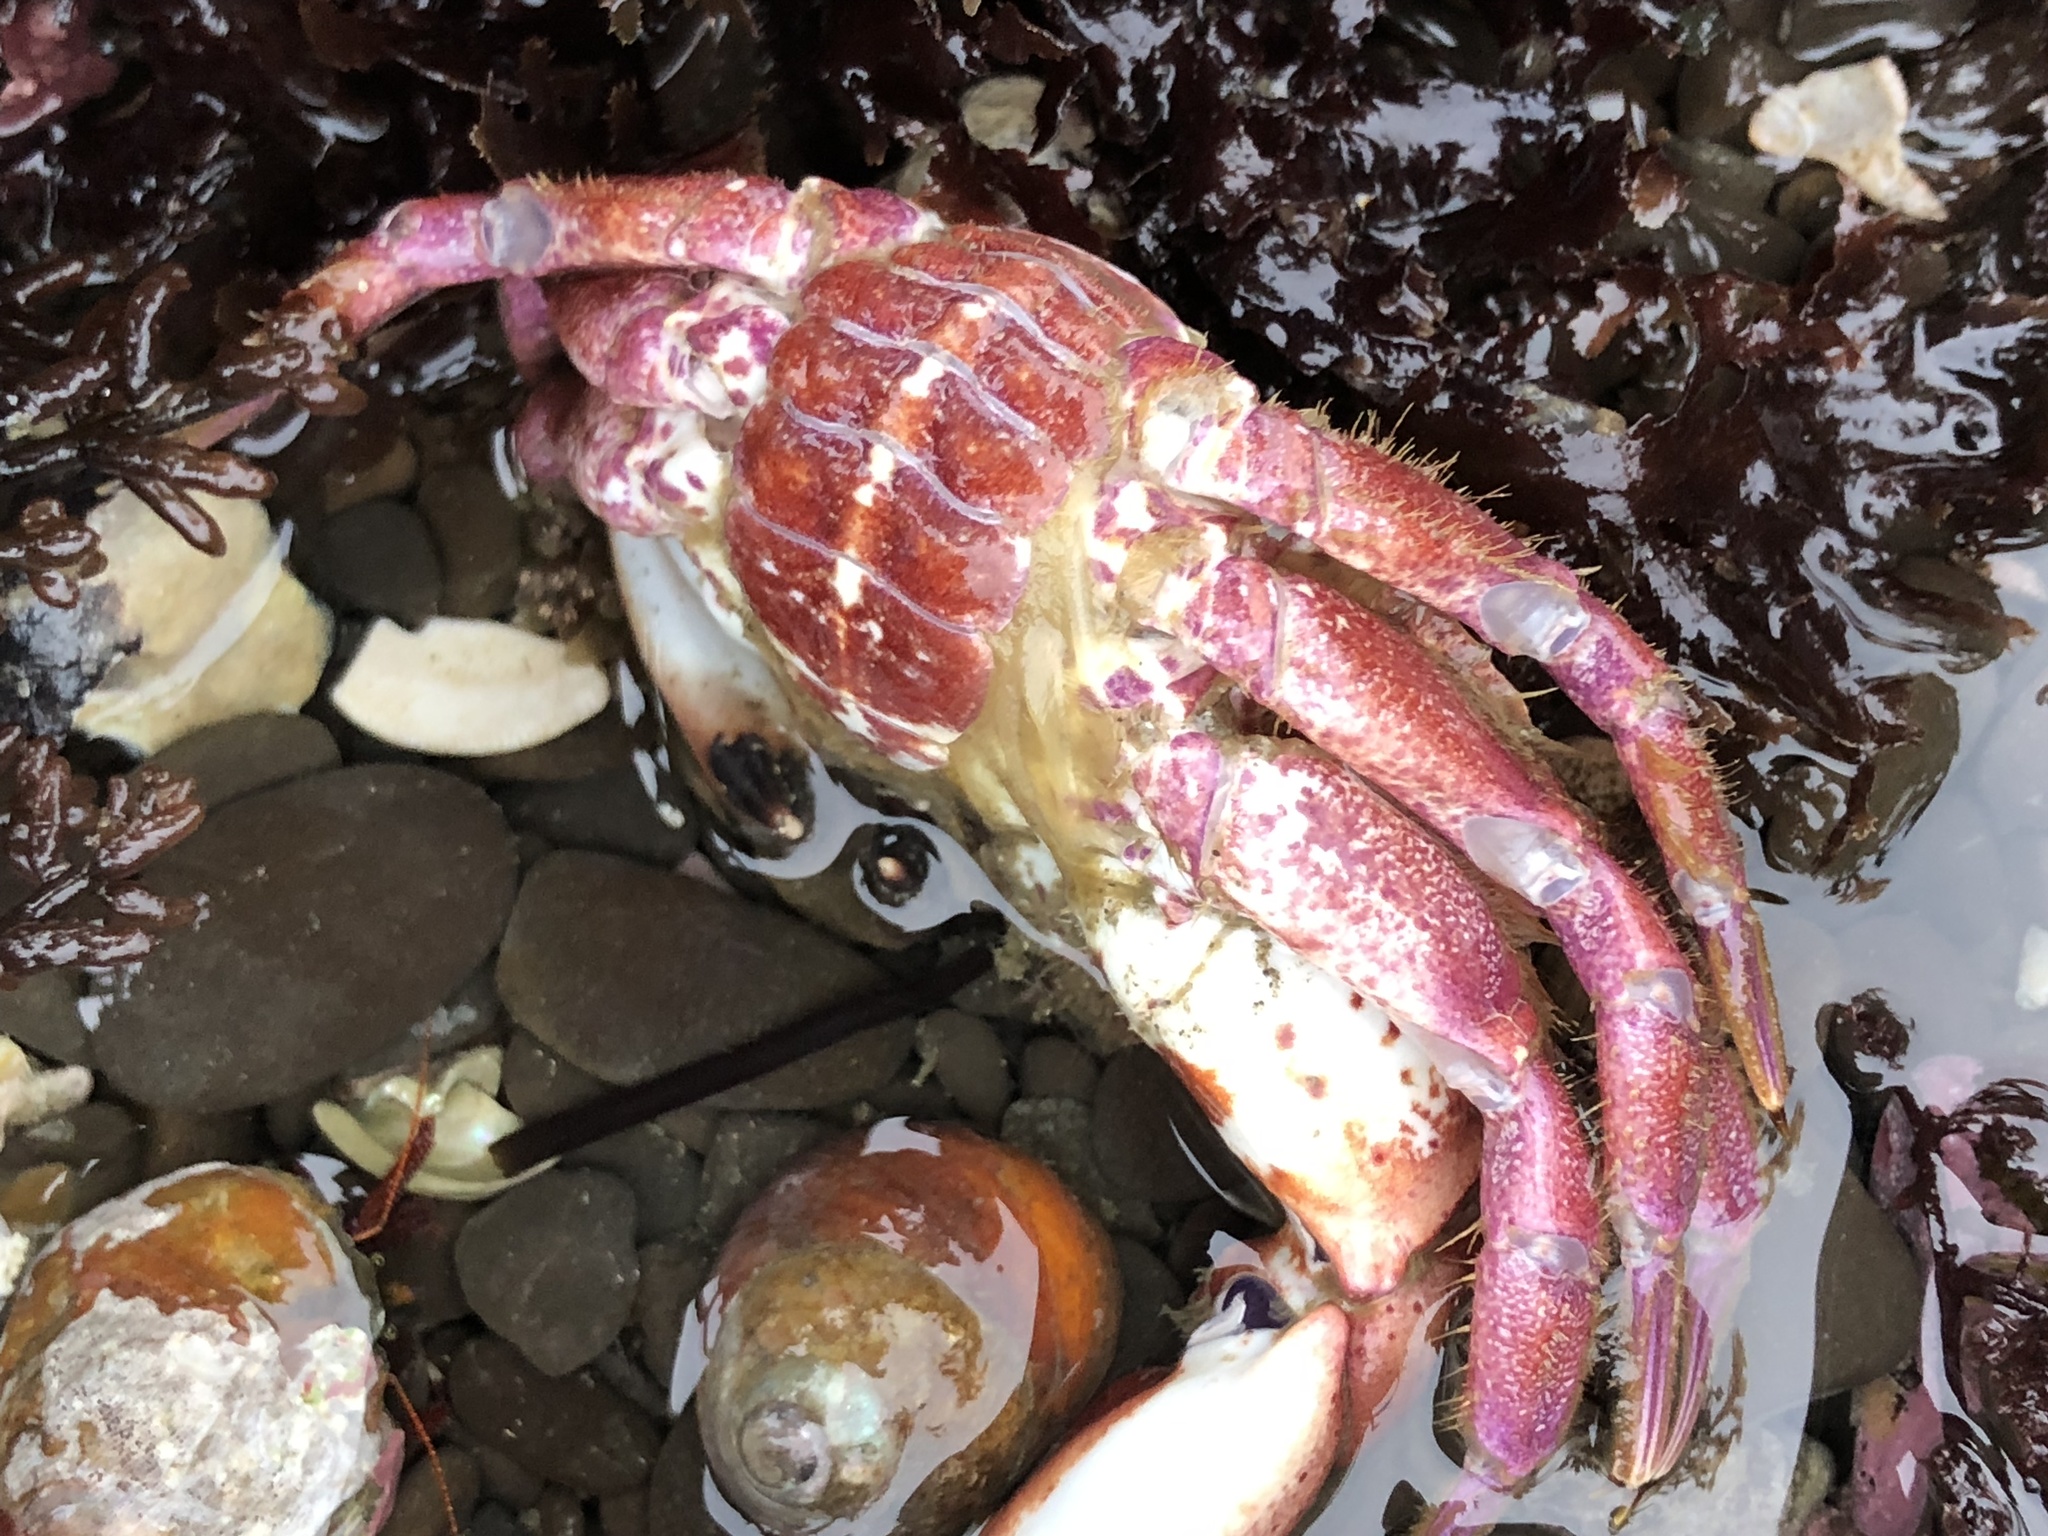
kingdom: Animalia
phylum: Arthropoda
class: Malacostraca
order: Decapoda
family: Cancridae
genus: Romaleon
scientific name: Romaleon antennarium
